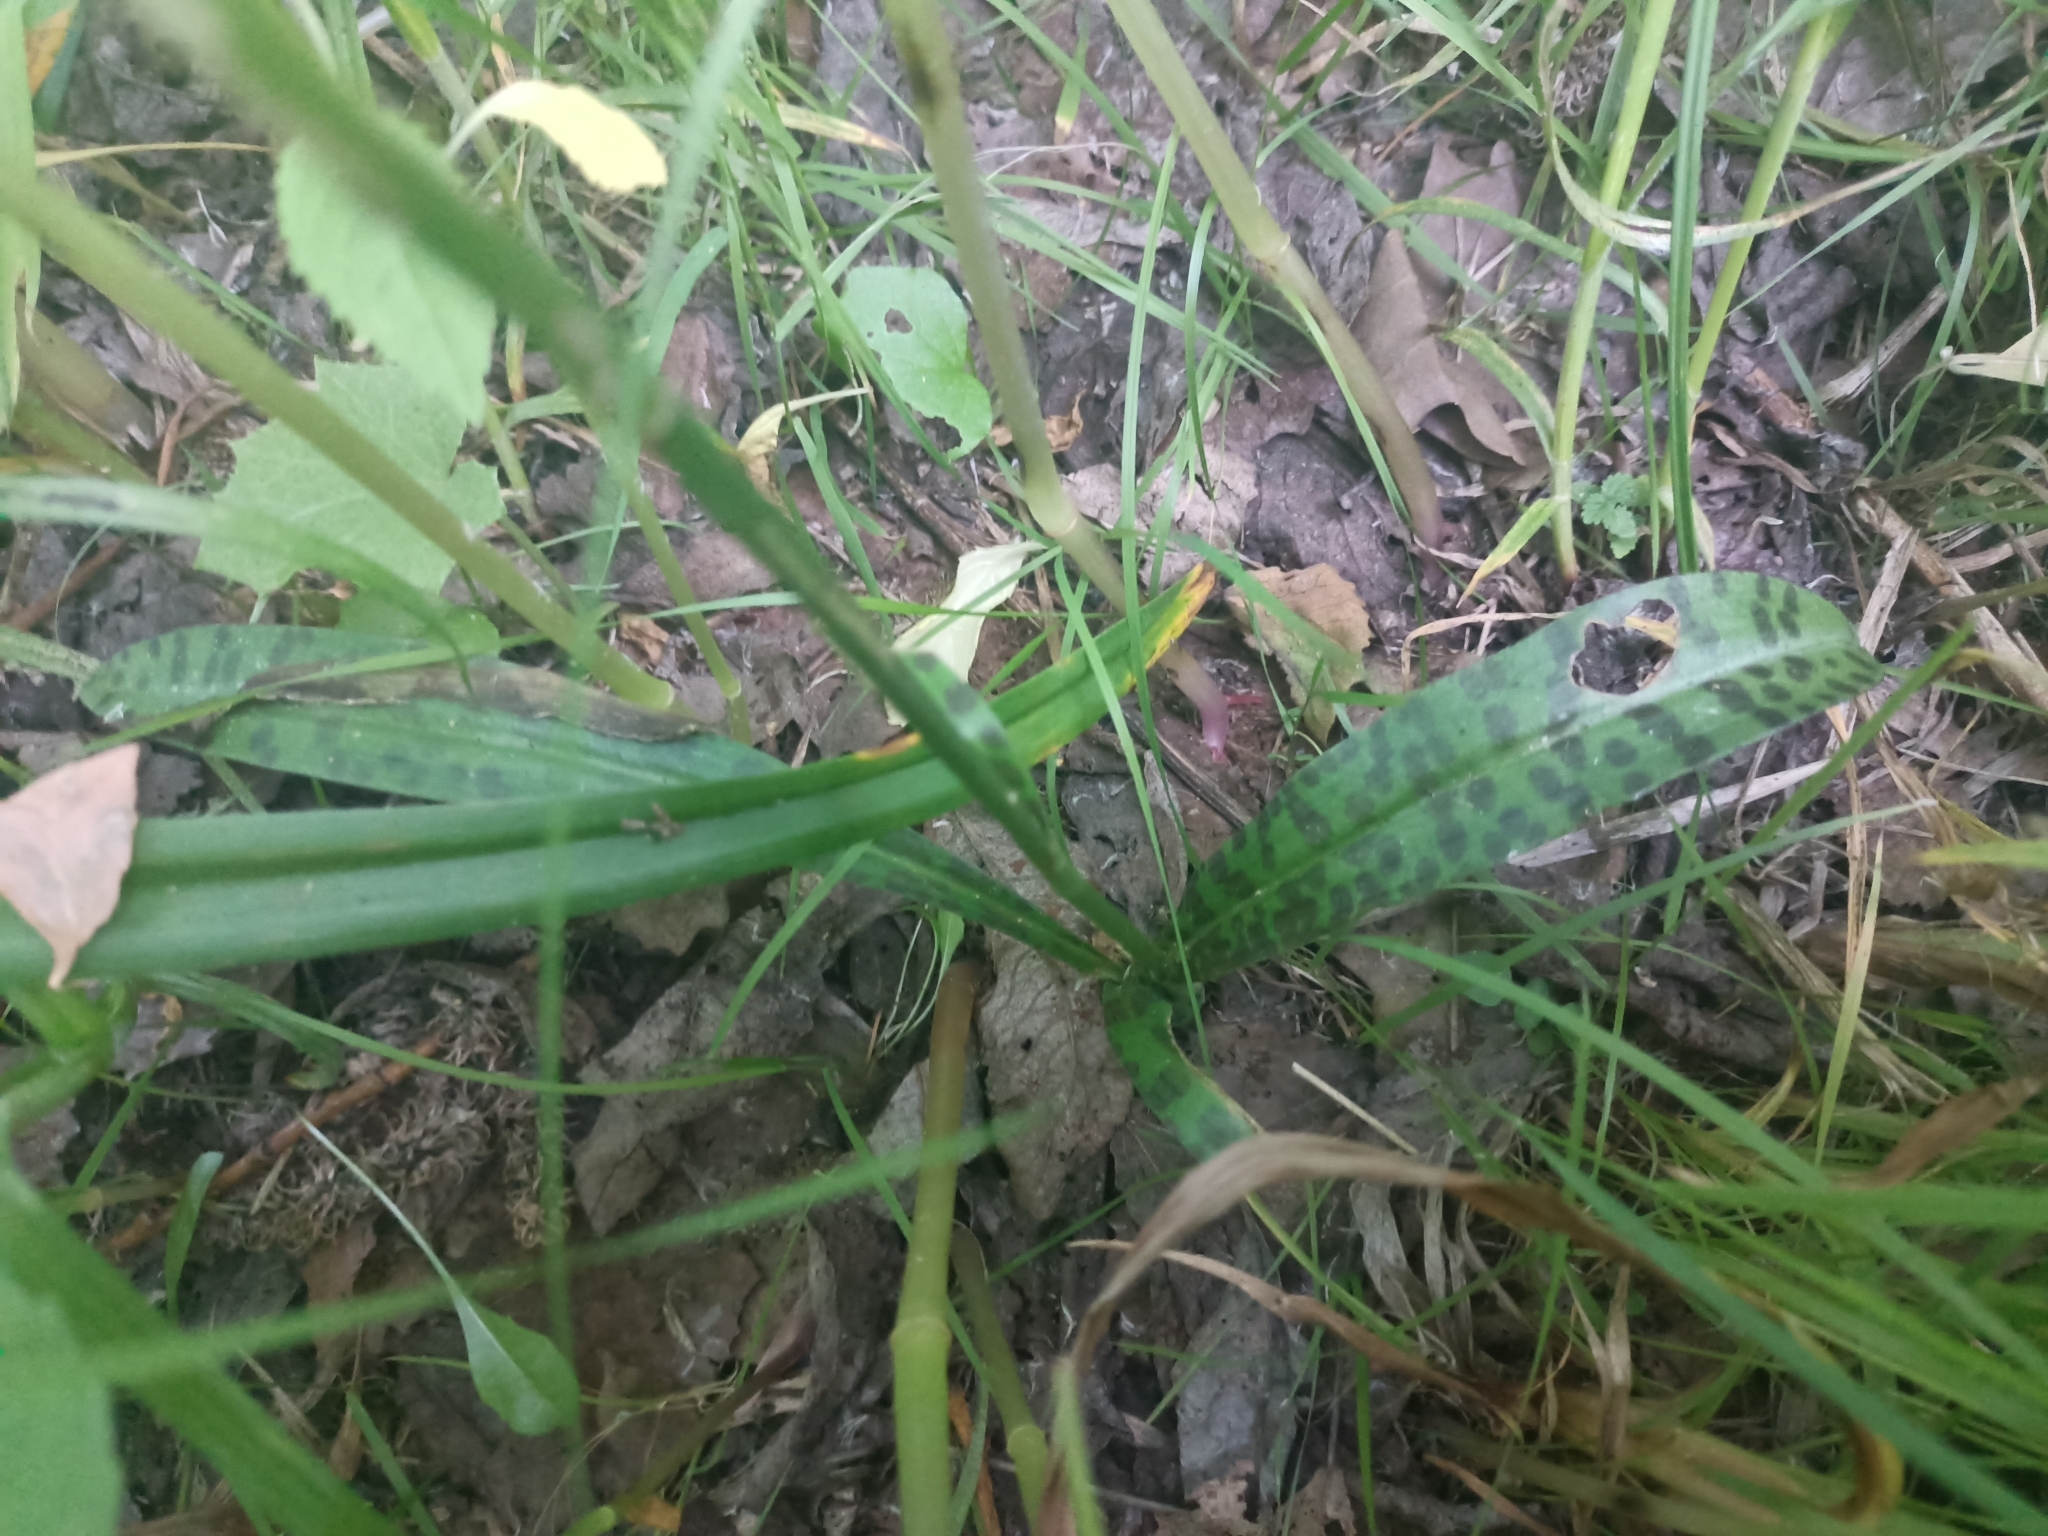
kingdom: Plantae
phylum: Tracheophyta
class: Liliopsida
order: Asparagales
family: Orchidaceae
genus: Dactylorhiza
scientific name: Dactylorhiza maculata
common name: Heath spotted-orchid
